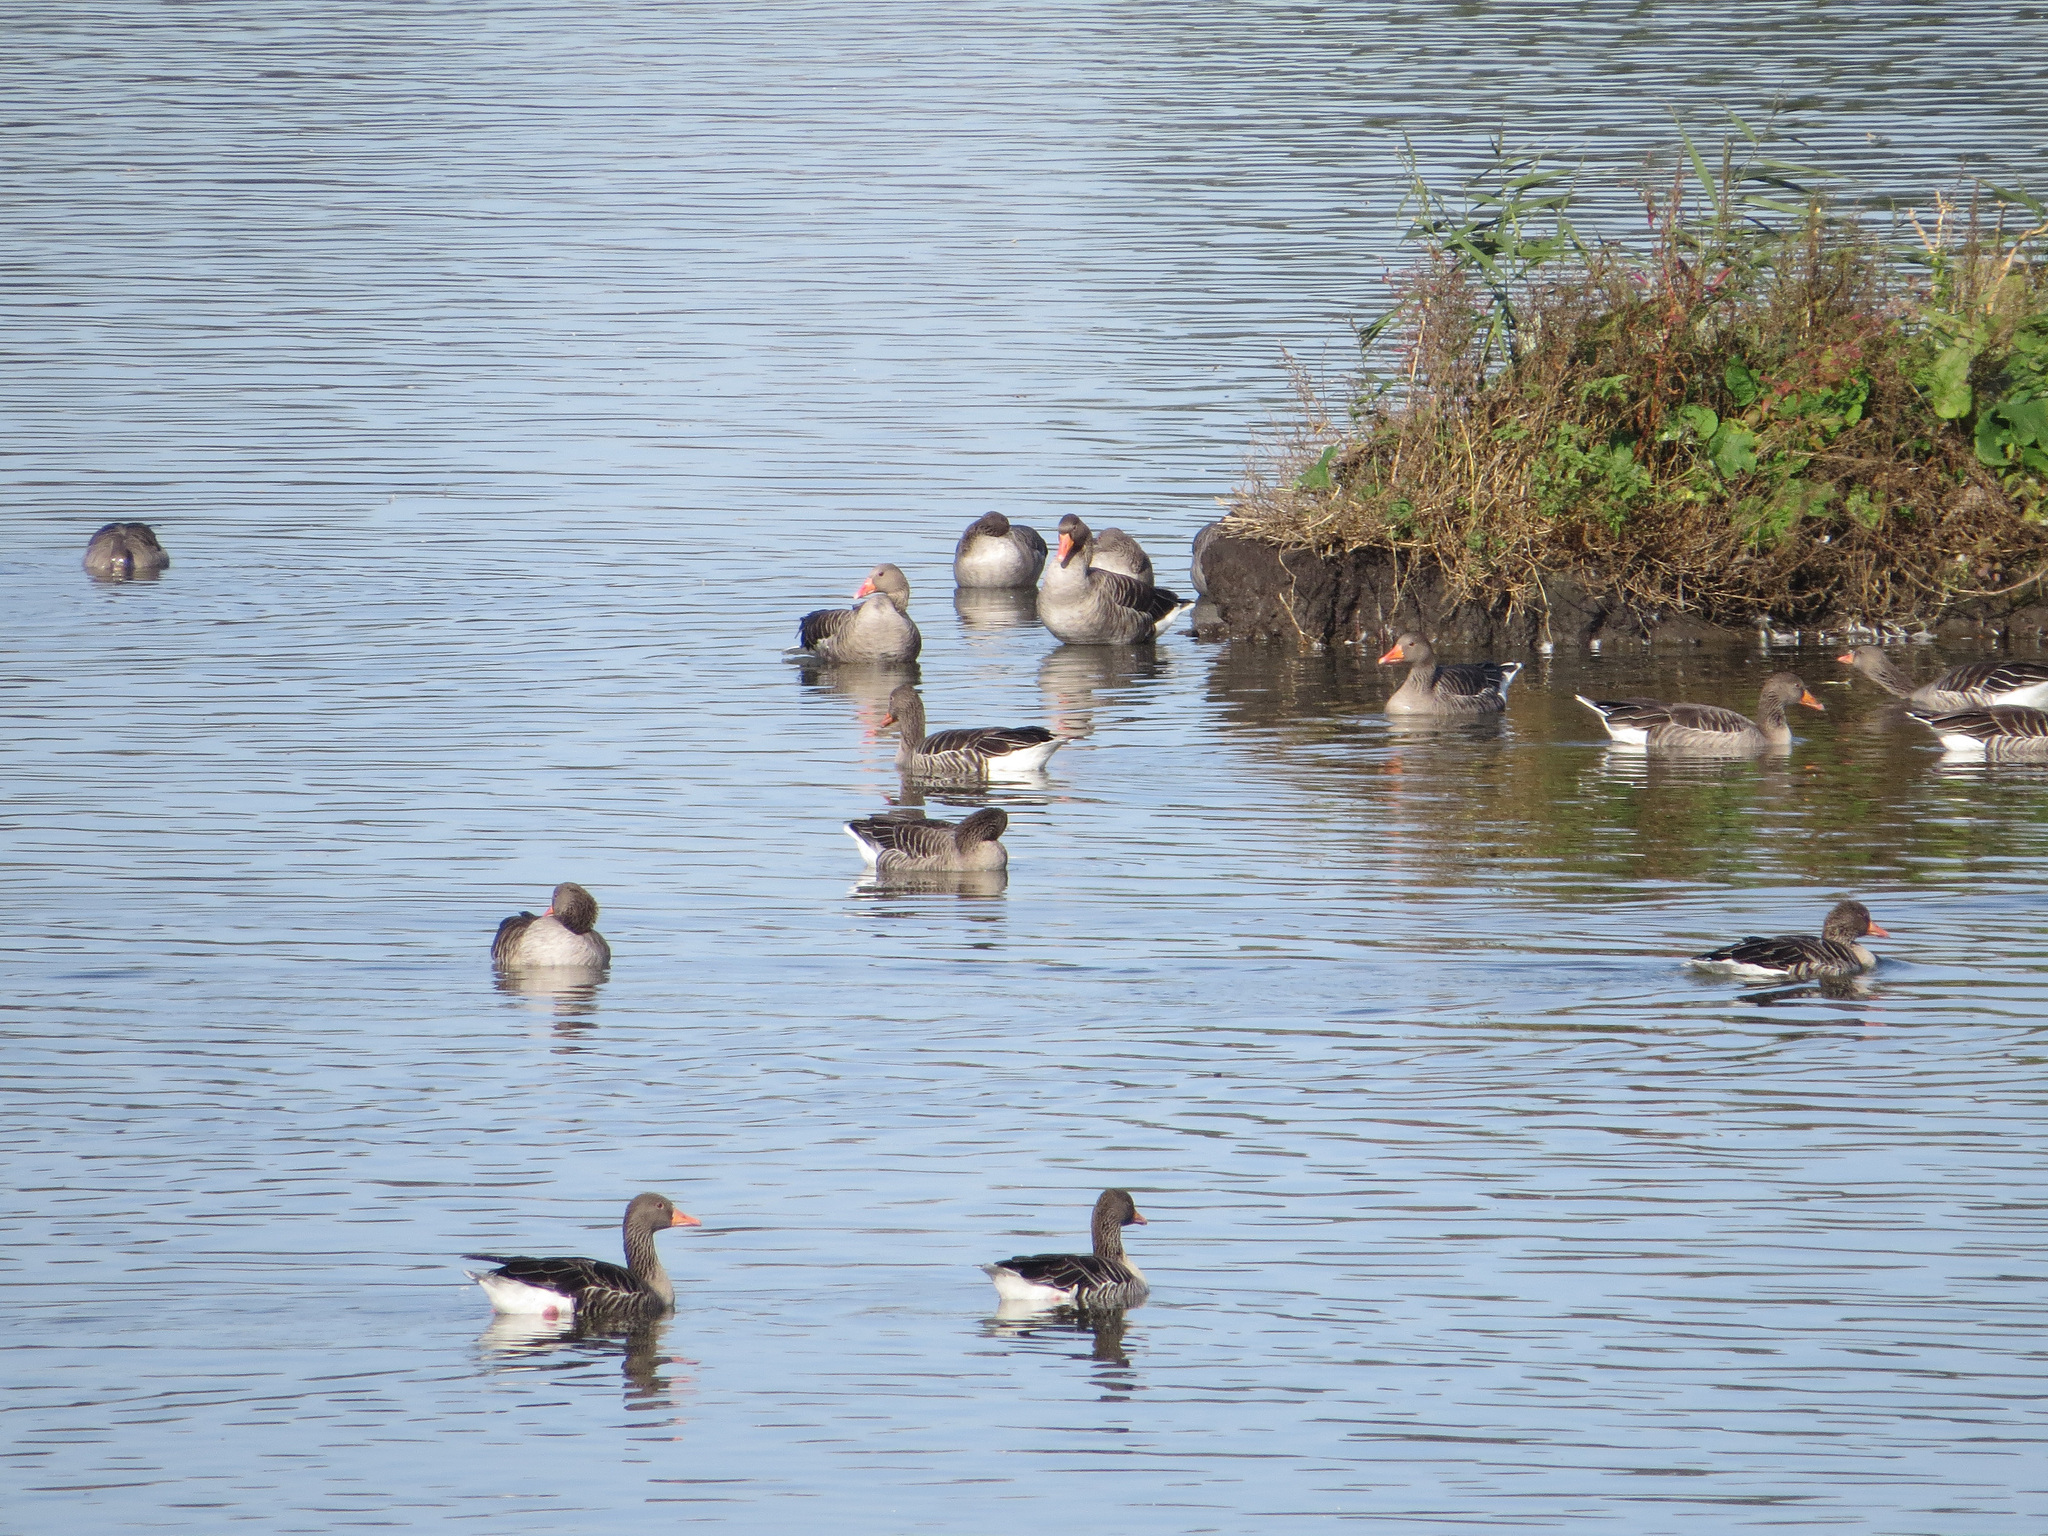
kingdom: Animalia
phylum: Chordata
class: Aves
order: Anseriformes
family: Anatidae
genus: Anser
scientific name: Anser anser
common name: Greylag goose
